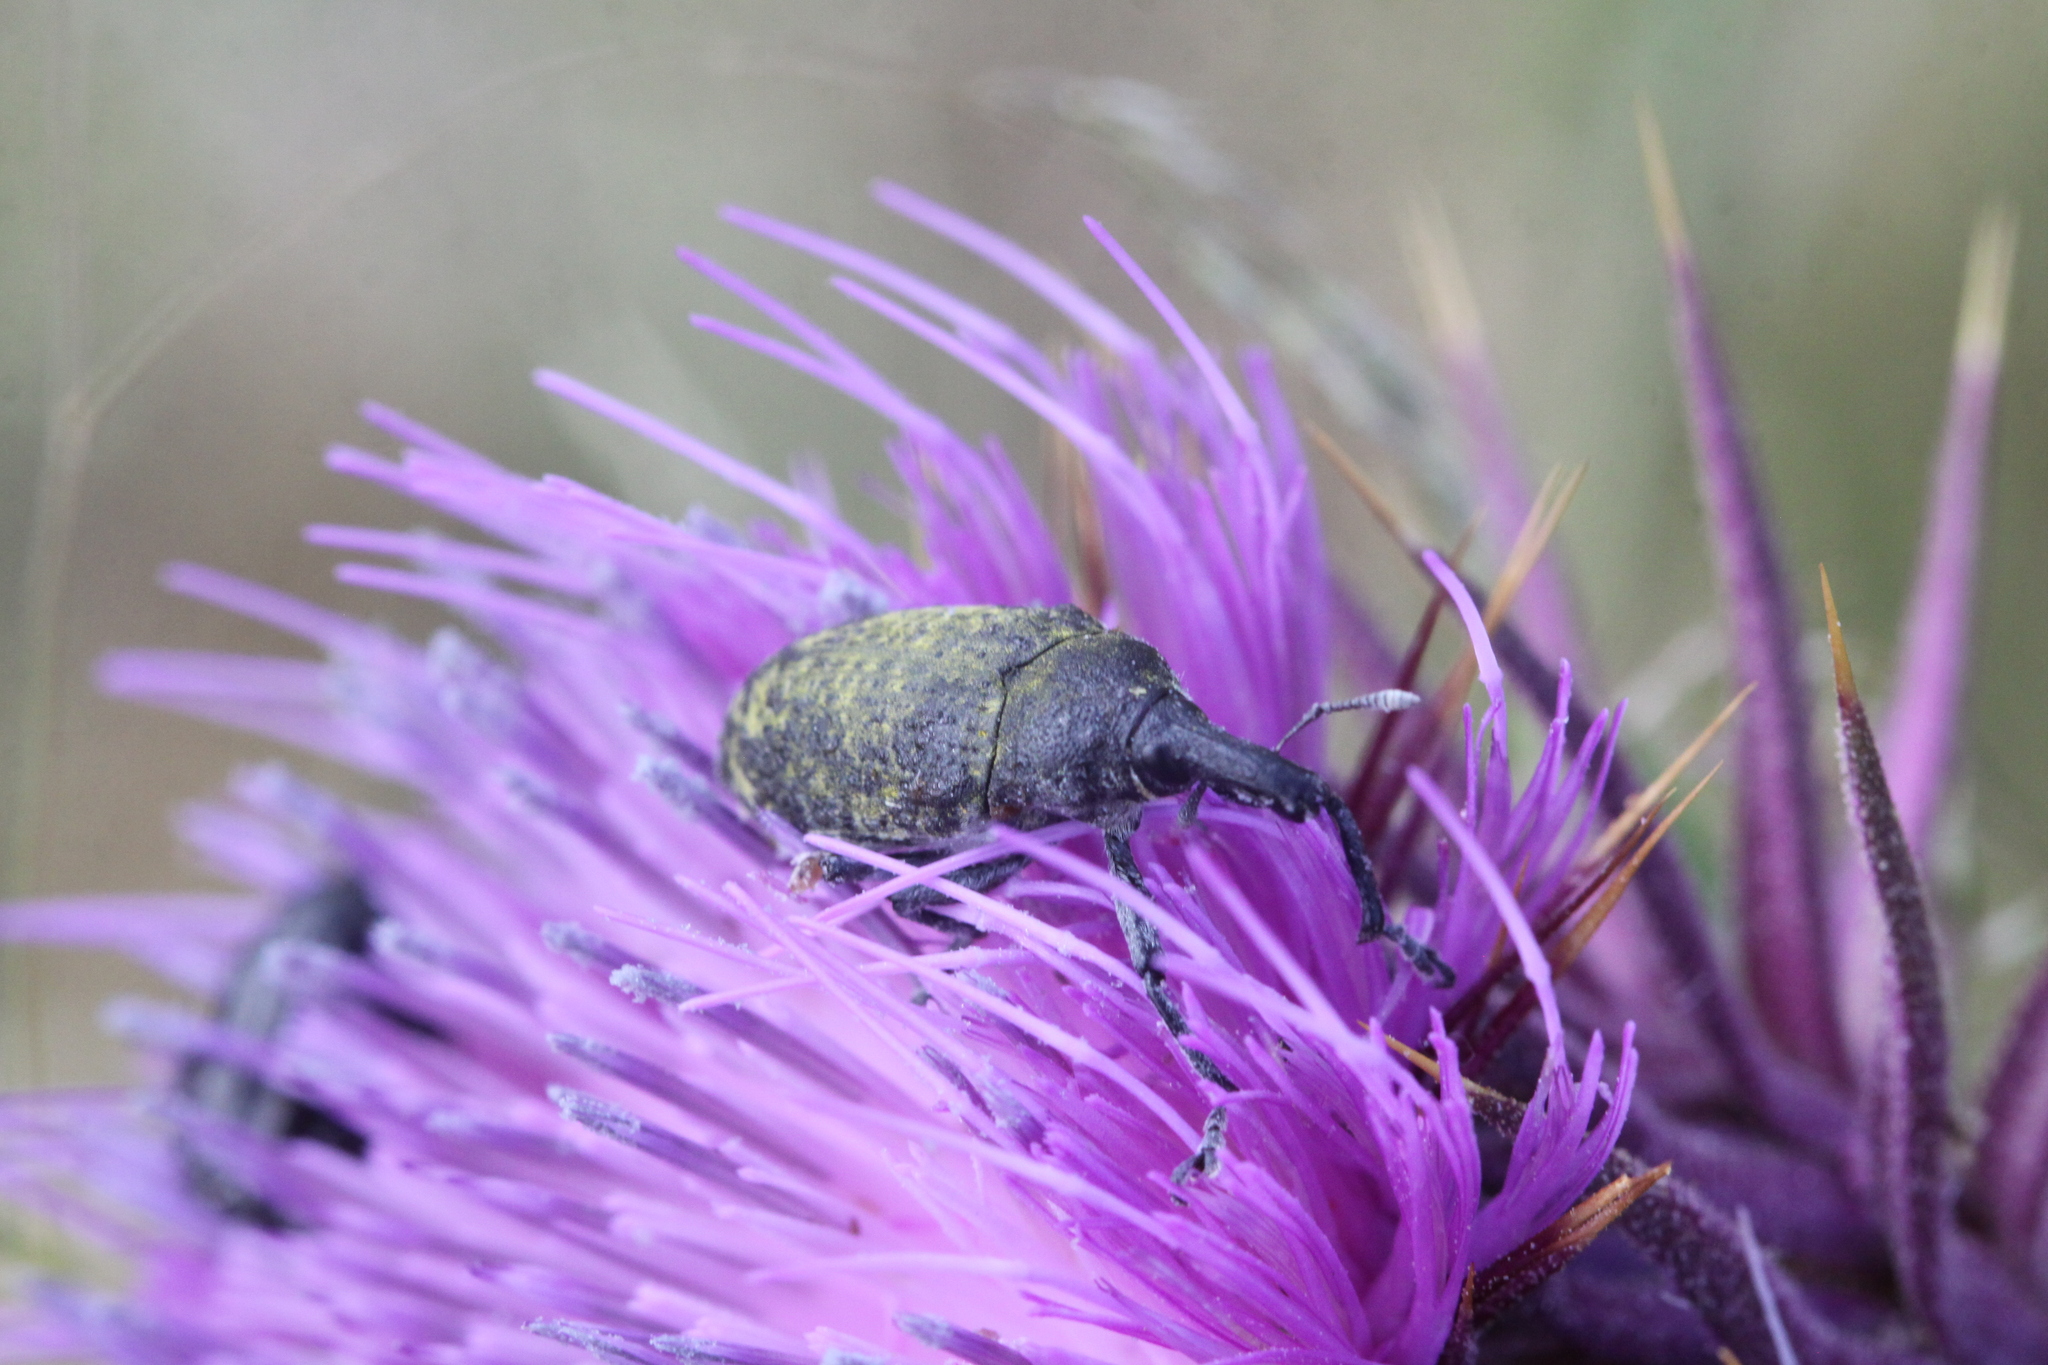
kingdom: Animalia
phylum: Arthropoda
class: Insecta
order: Coleoptera
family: Curculionidae
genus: Larinus
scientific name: Larinus turbinatus
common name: Weevil
